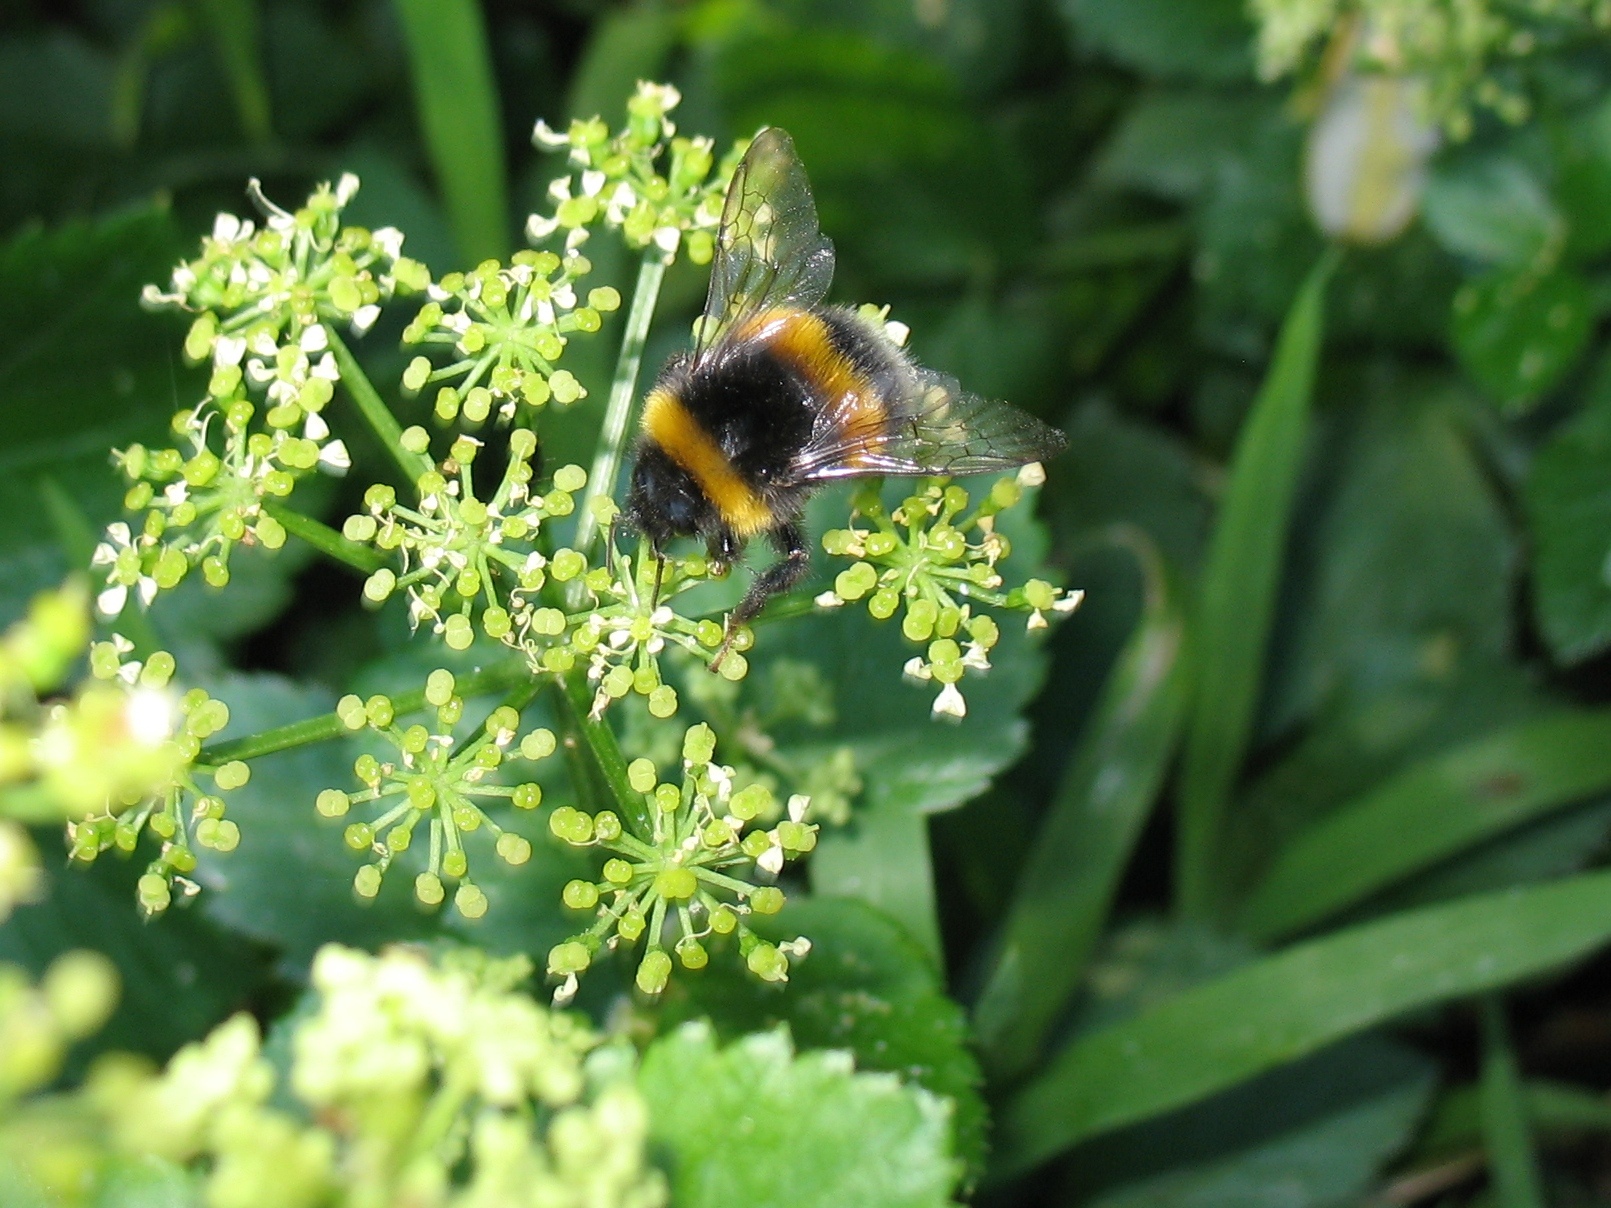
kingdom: Animalia
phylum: Arthropoda
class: Insecta
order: Hymenoptera
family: Apidae
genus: Bombus
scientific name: Bombus terrestris
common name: Buff-tailed bumblebee
